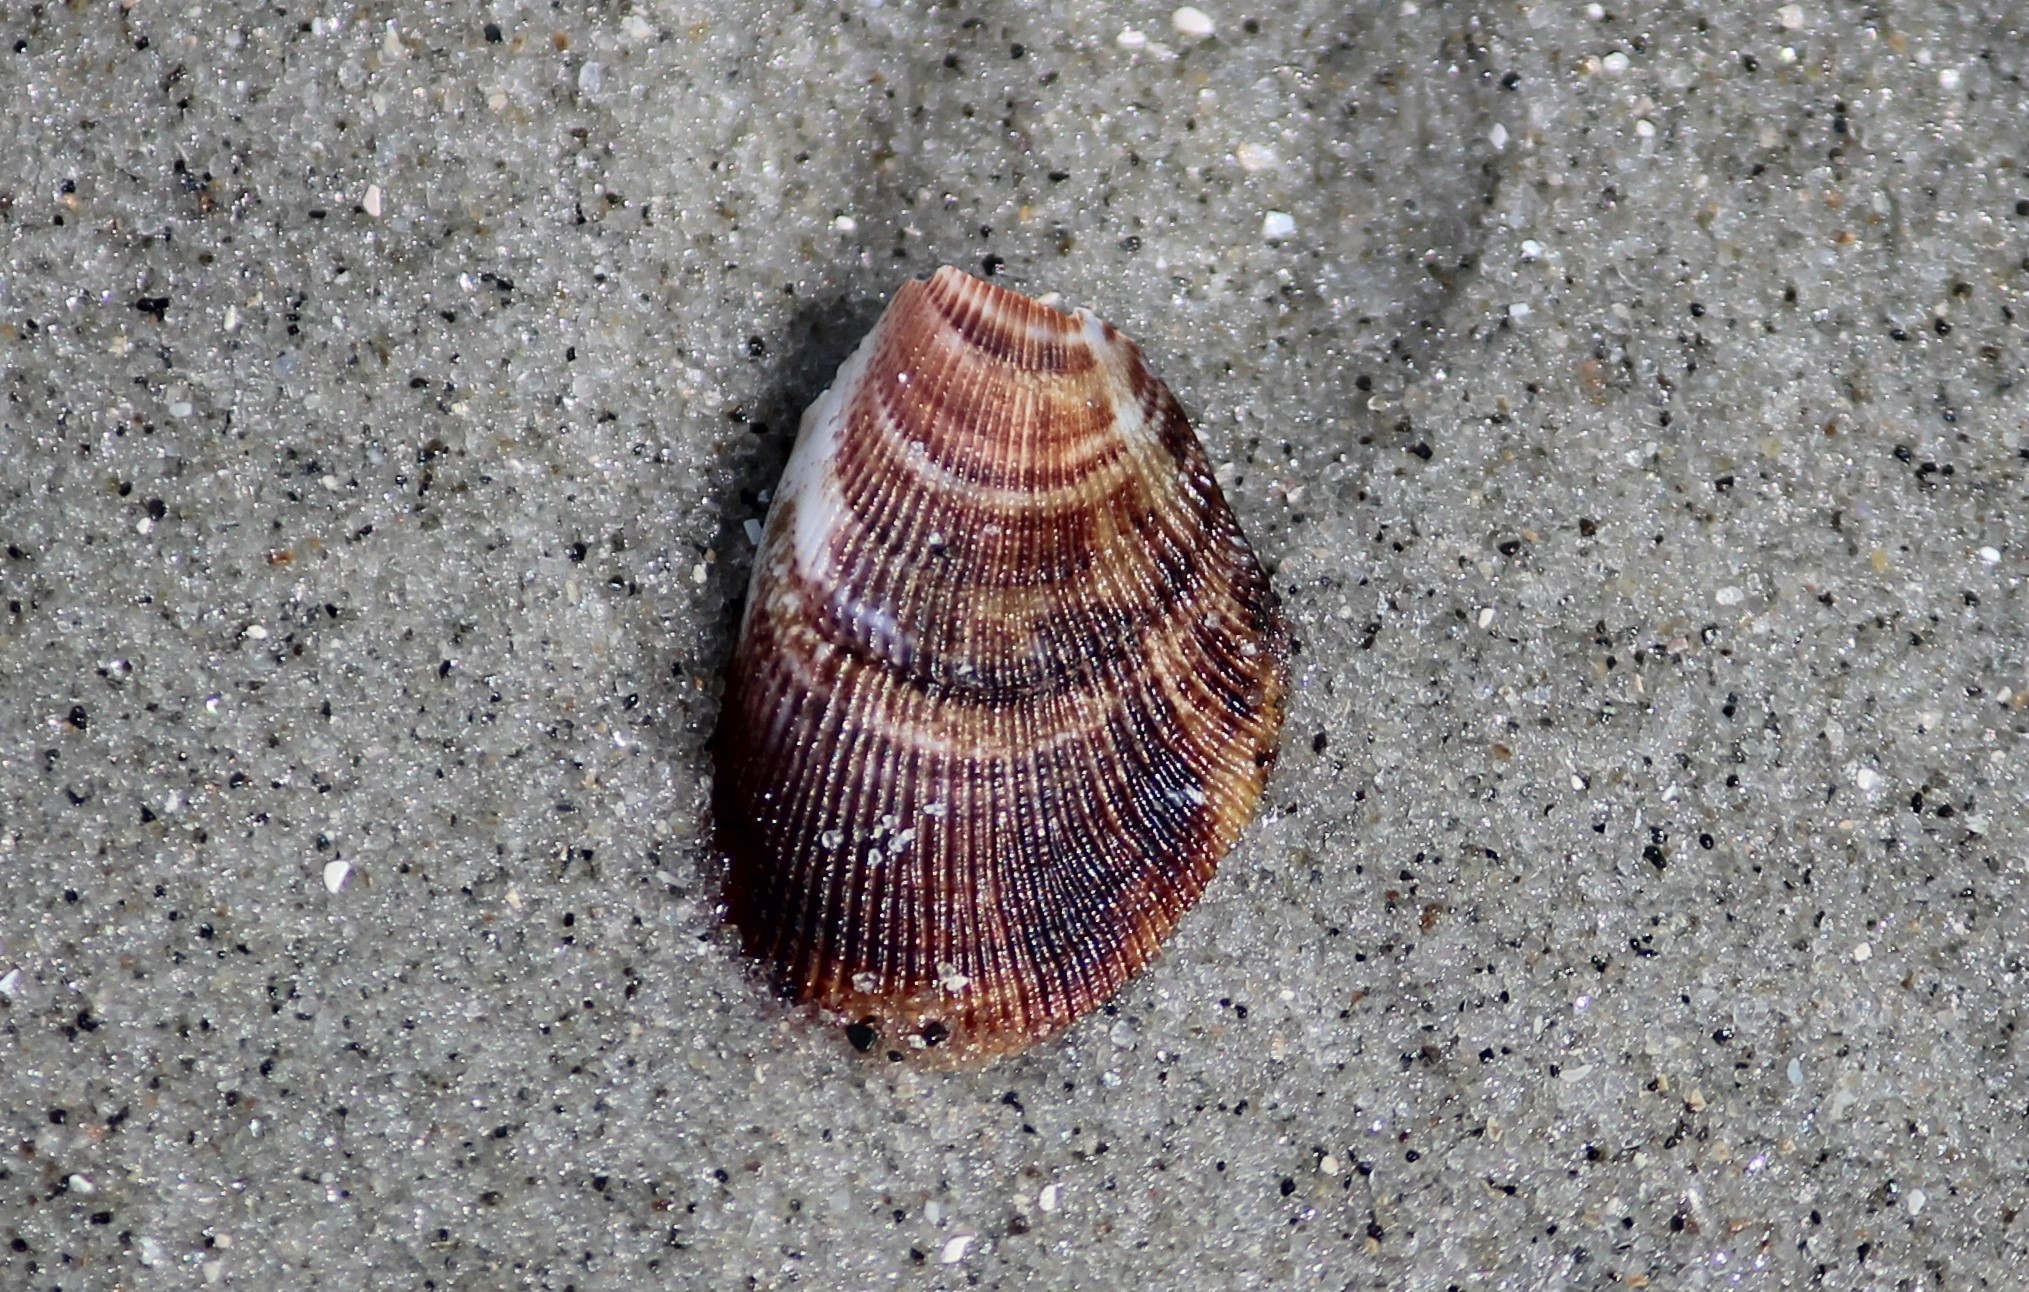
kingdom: Animalia
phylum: Mollusca
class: Bivalvia
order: Mytilida
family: Mytilidae
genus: Brachidontes
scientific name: Brachidontes exustus
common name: Scorched mussel
